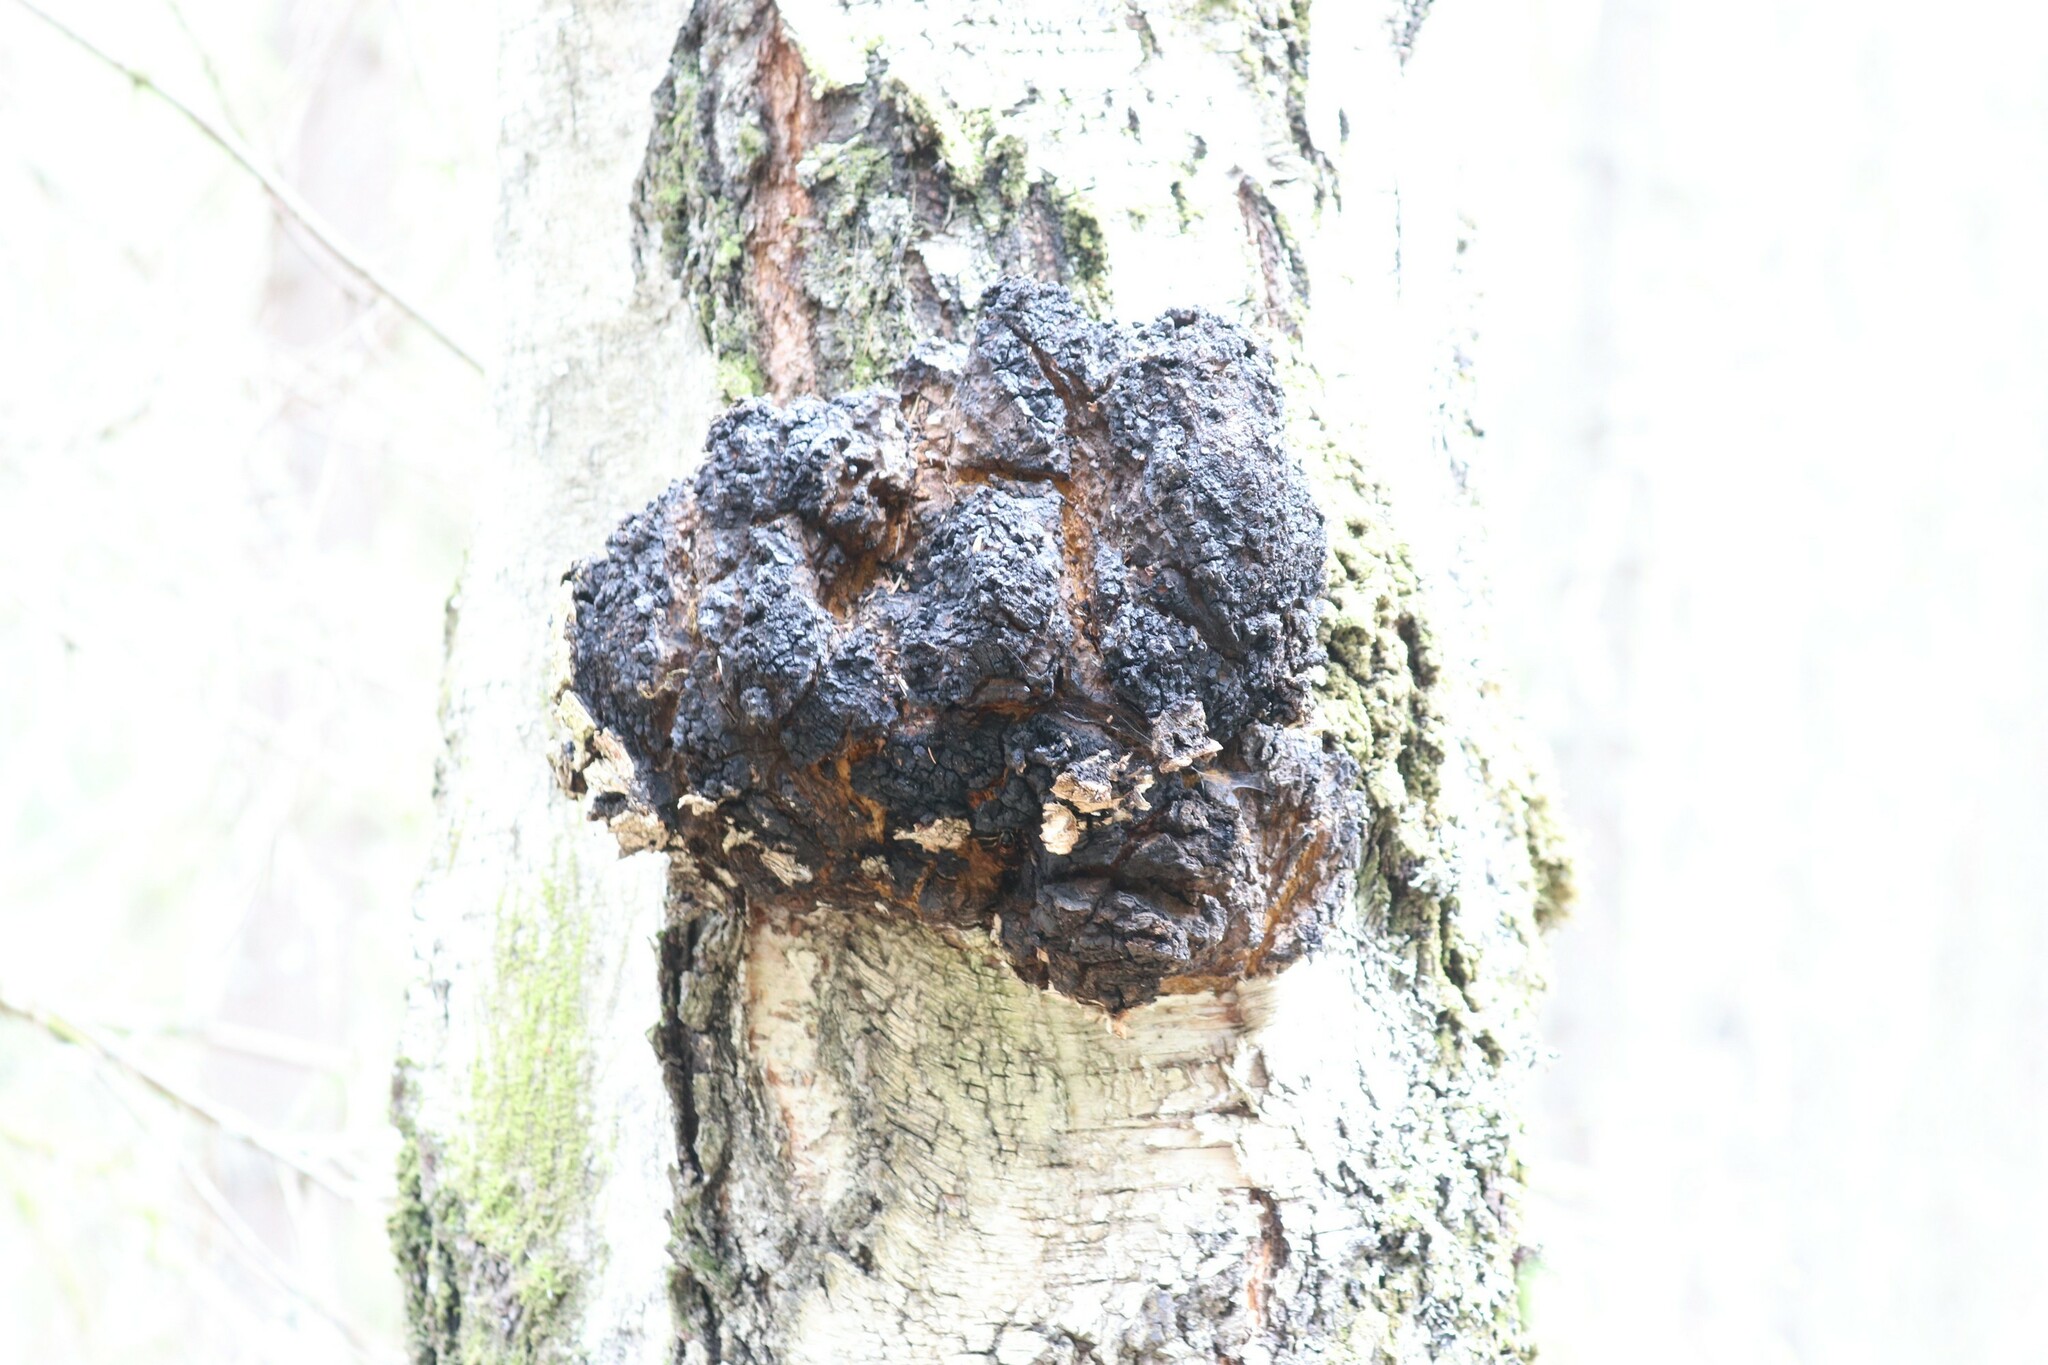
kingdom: Fungi
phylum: Basidiomycota
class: Agaricomycetes
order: Hymenochaetales
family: Hymenochaetaceae
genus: Inonotus
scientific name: Inonotus obliquus
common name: Chaga
